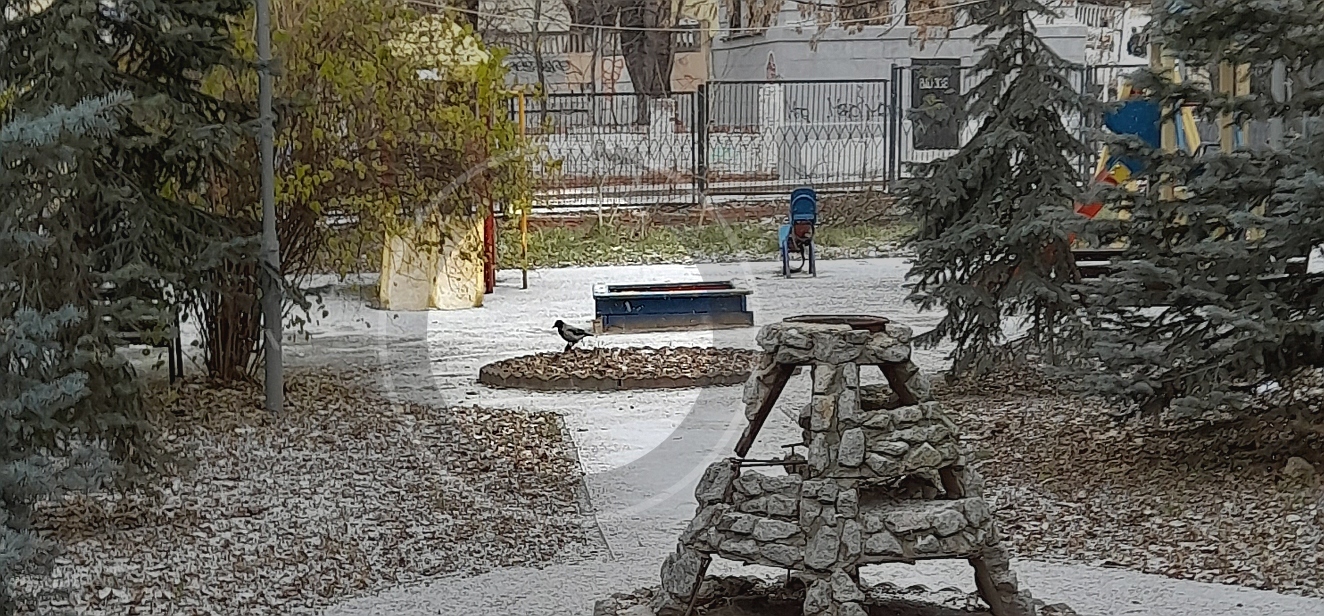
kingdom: Animalia
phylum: Chordata
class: Aves
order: Passeriformes
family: Corvidae
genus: Corvus
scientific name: Corvus cornix
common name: Hooded crow
